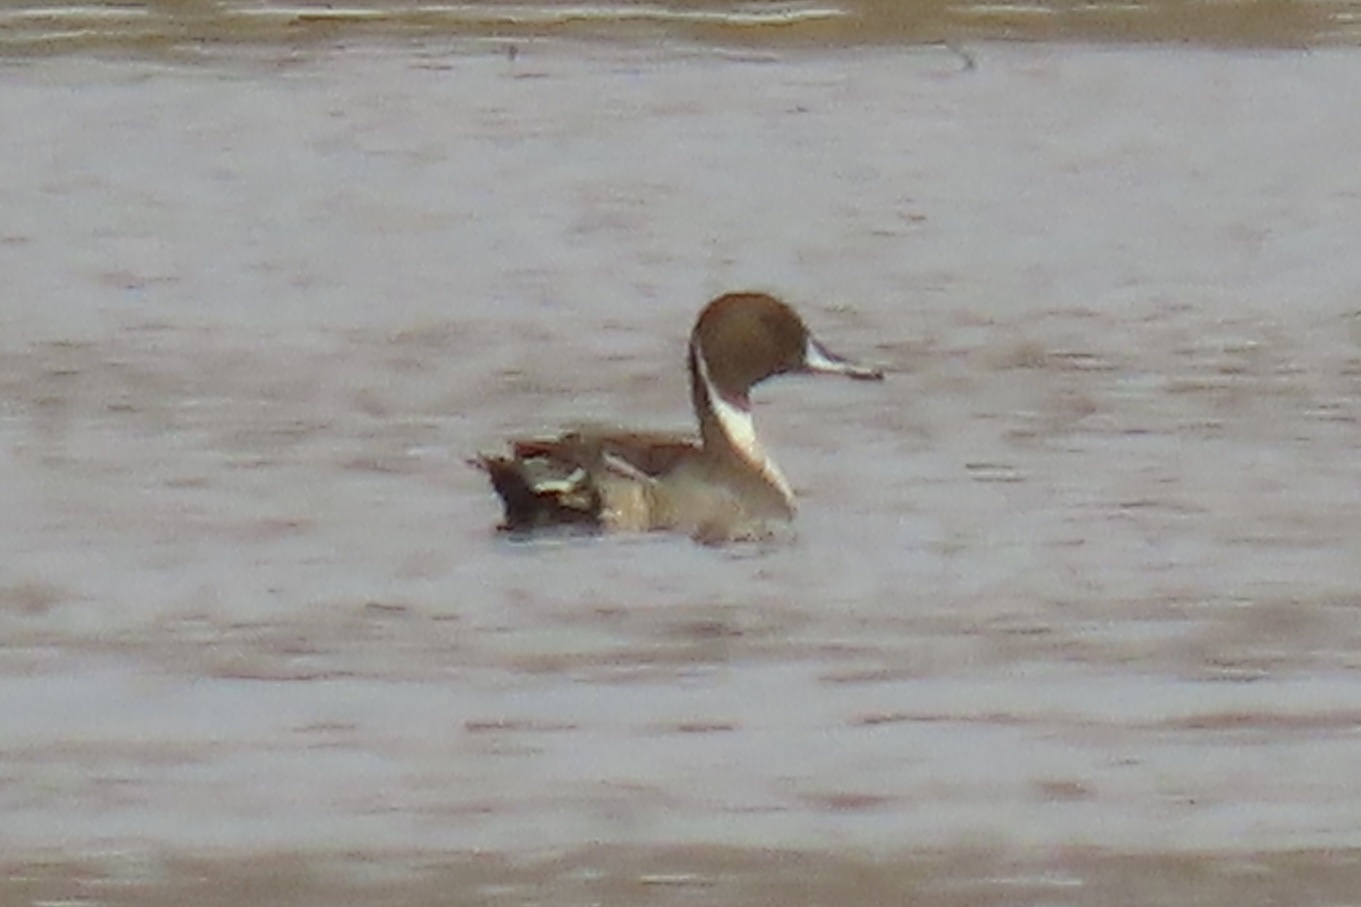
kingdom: Animalia
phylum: Chordata
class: Aves
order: Anseriformes
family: Anatidae
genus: Anas
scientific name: Anas acuta
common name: Northern pintail
